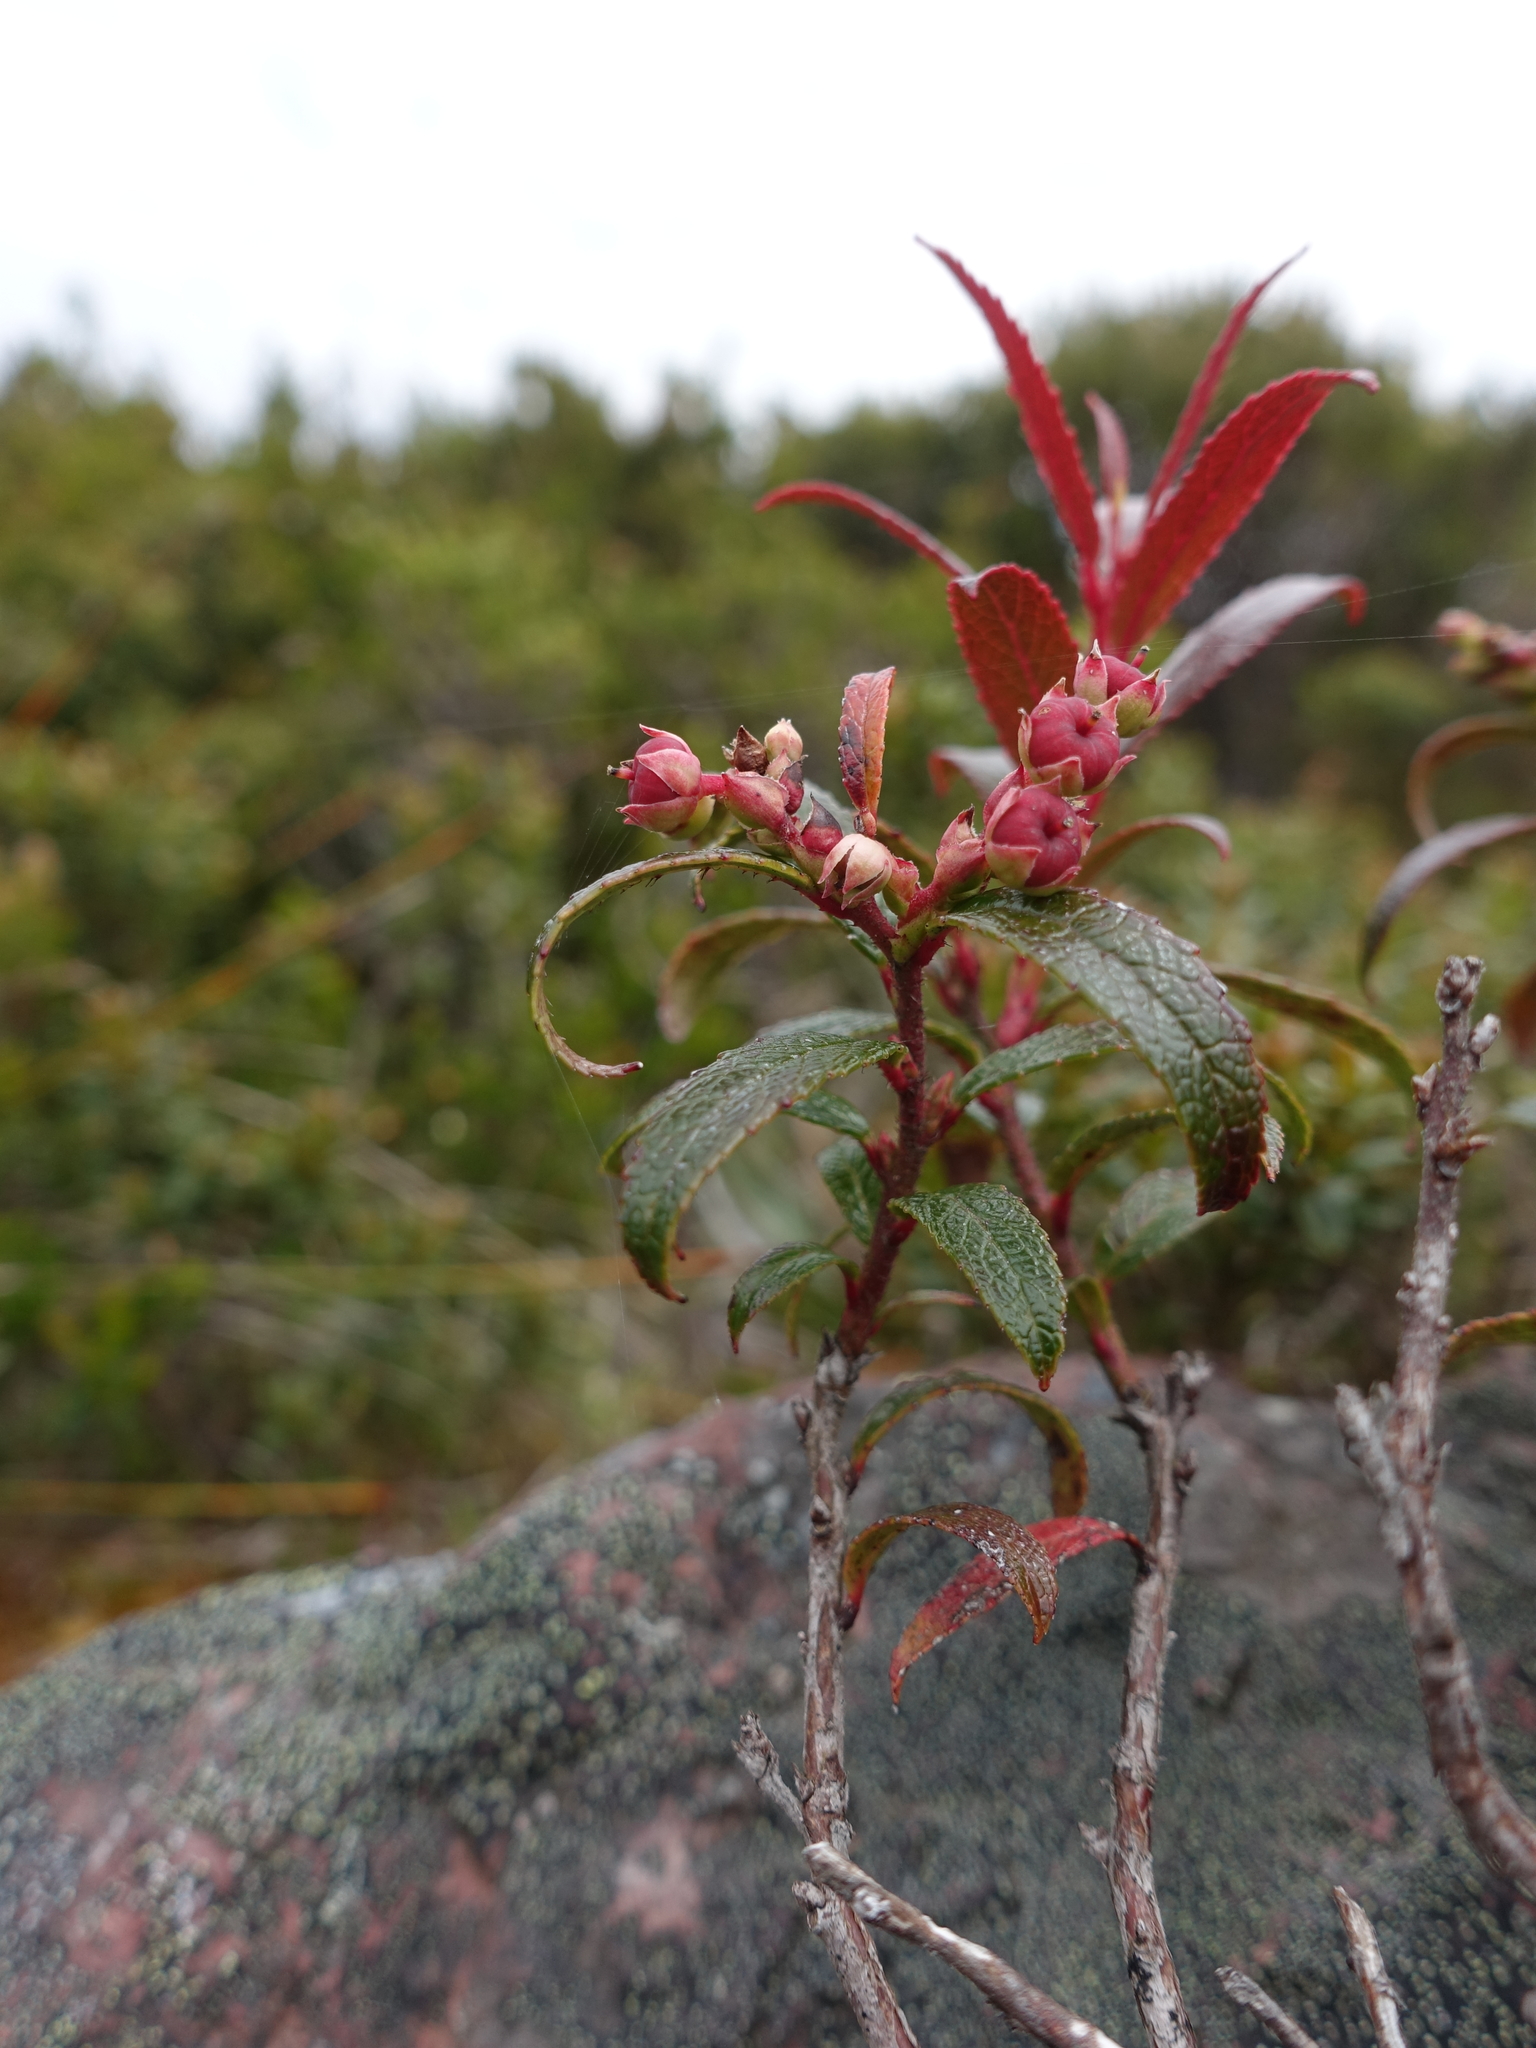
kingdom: Plantae
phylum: Tracheophyta
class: Magnoliopsida
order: Ericales
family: Ericaceae
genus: Gaultheria
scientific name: Gaultheria hispida
